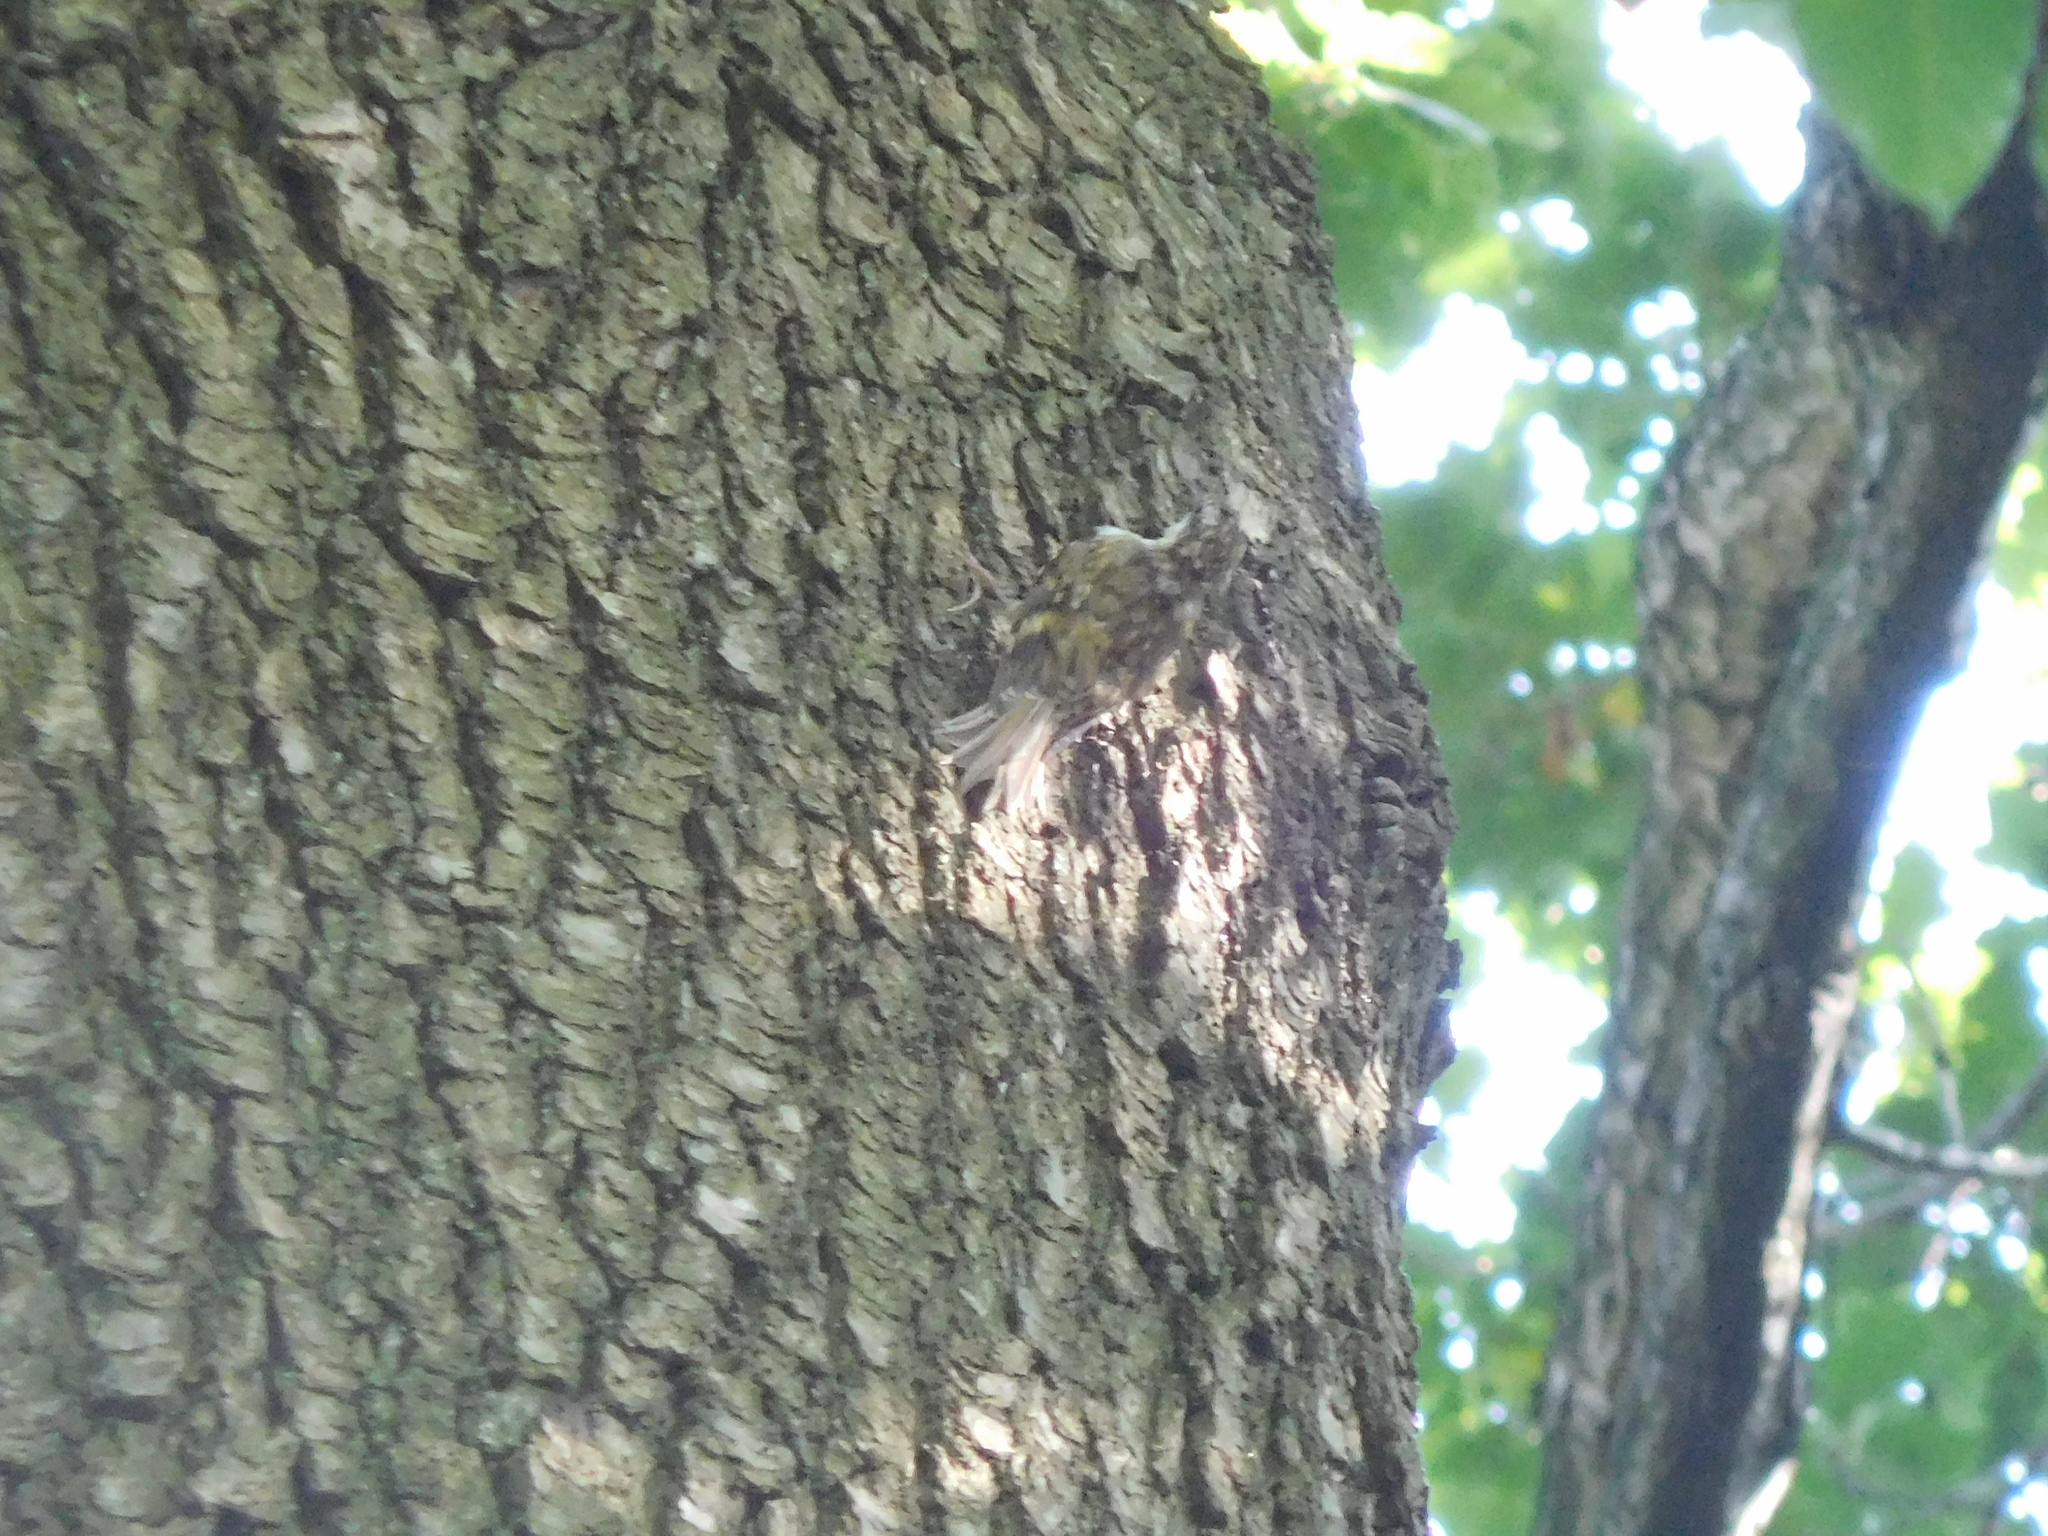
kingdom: Animalia
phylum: Chordata
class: Aves
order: Passeriformes
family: Certhiidae
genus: Certhia
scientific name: Certhia familiaris
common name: Eurasian treecreeper
